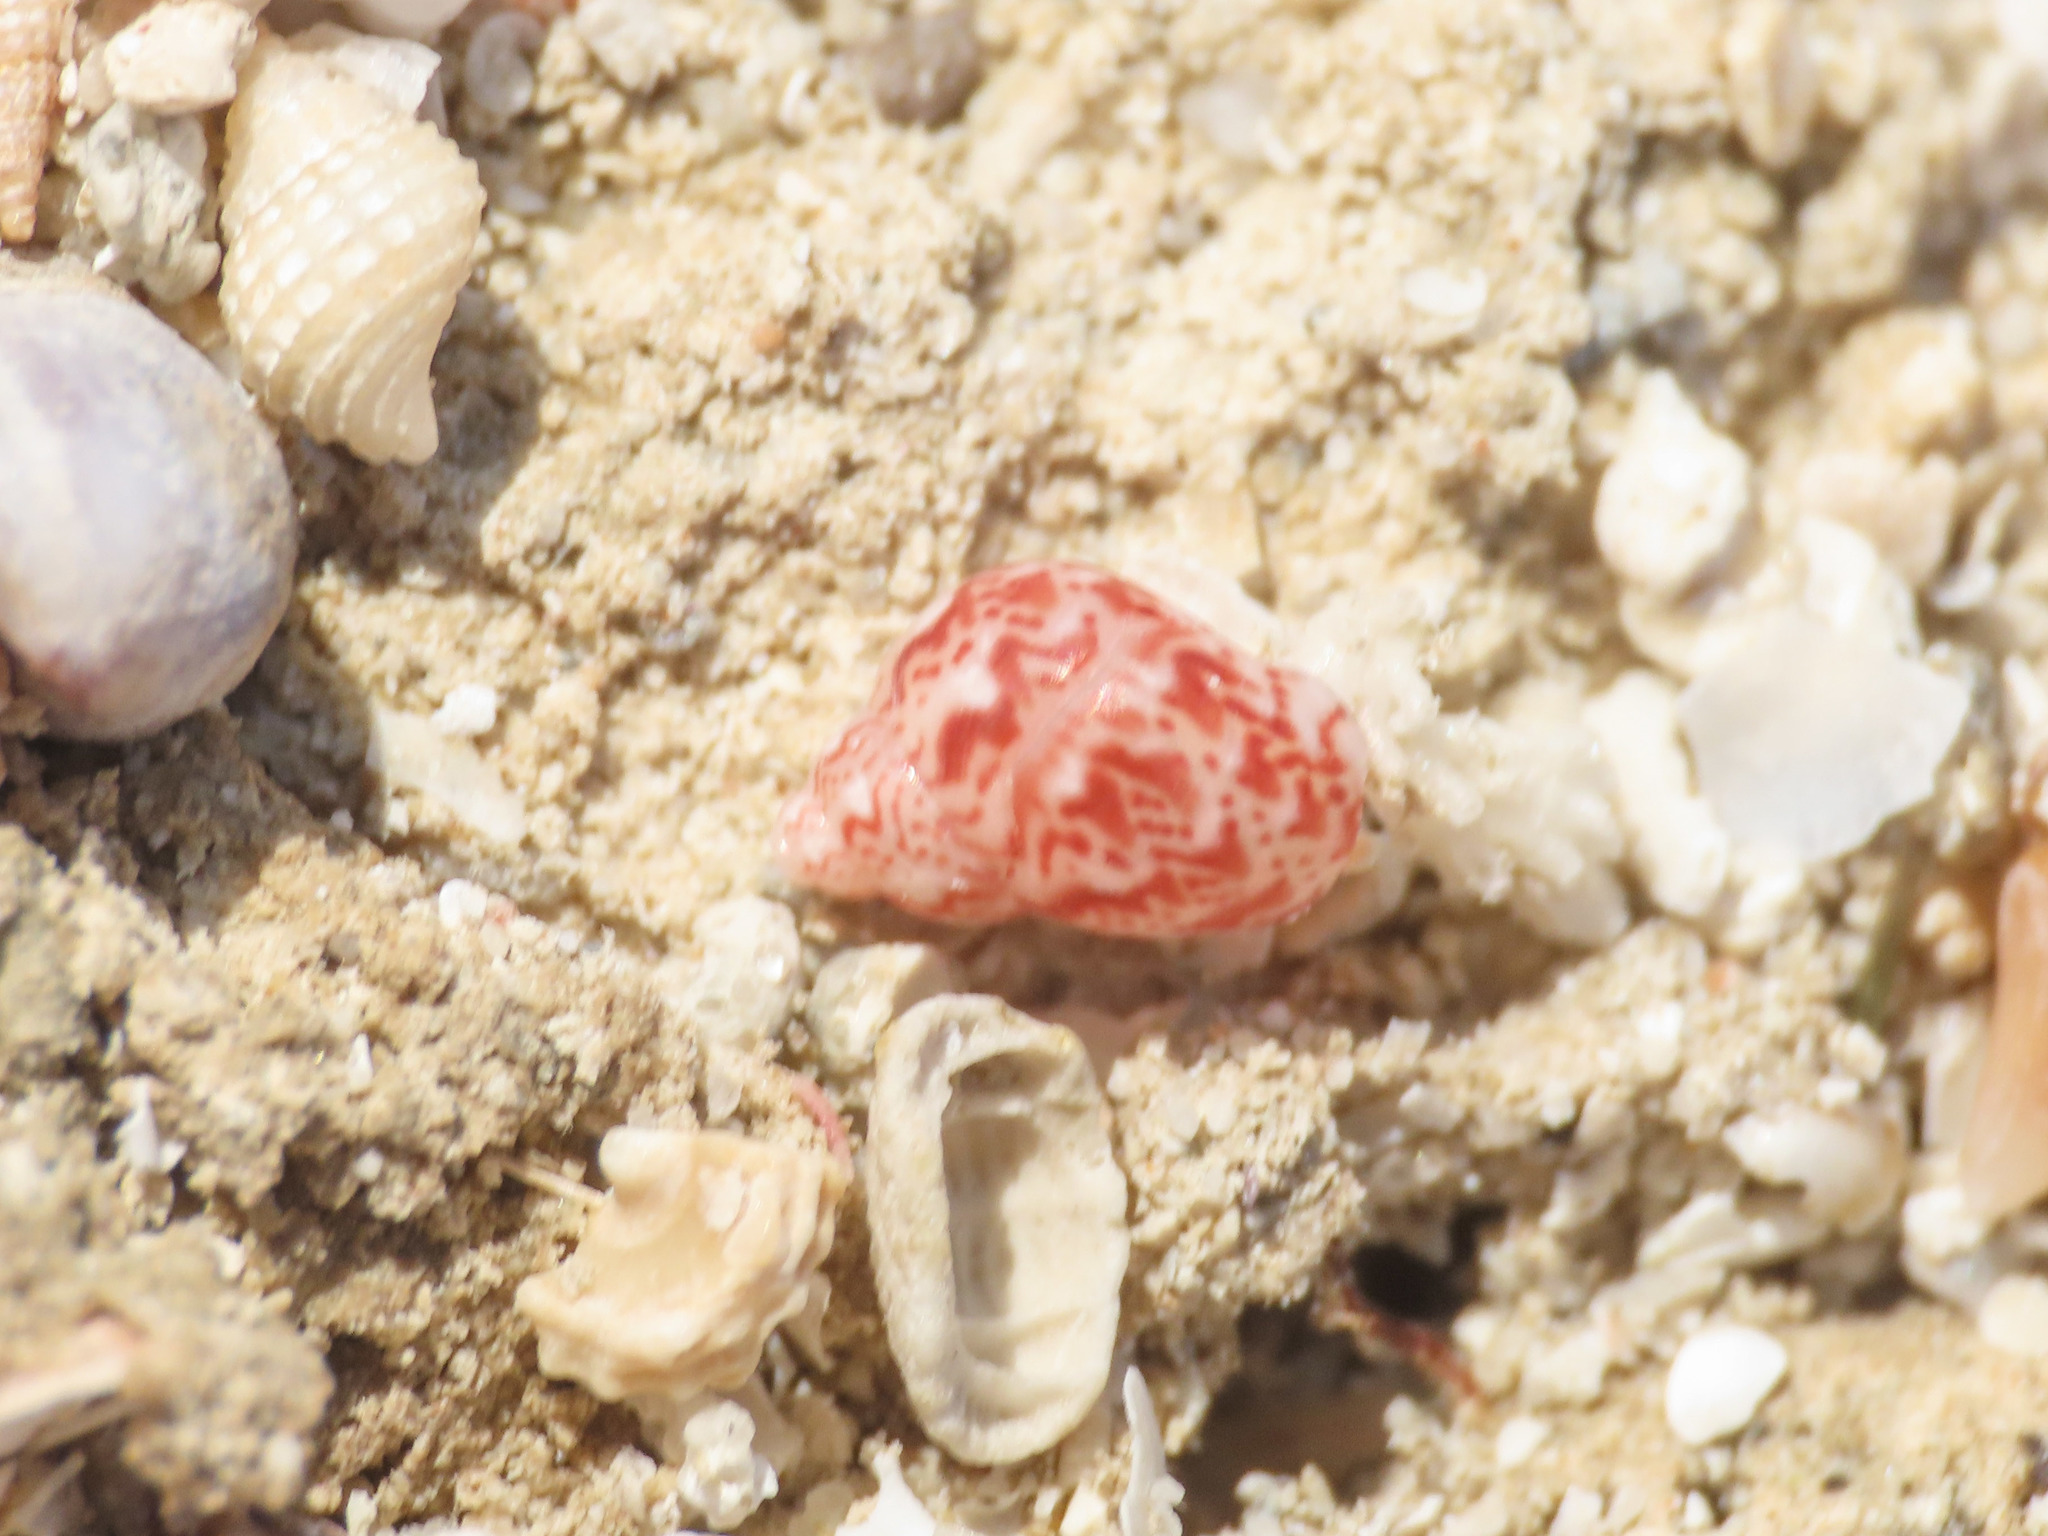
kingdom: Animalia
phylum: Mollusca
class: Gastropoda
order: Trochida
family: Phasianellidae
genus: Tricolia
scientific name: Tricolia pullus
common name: Pheasant shell
